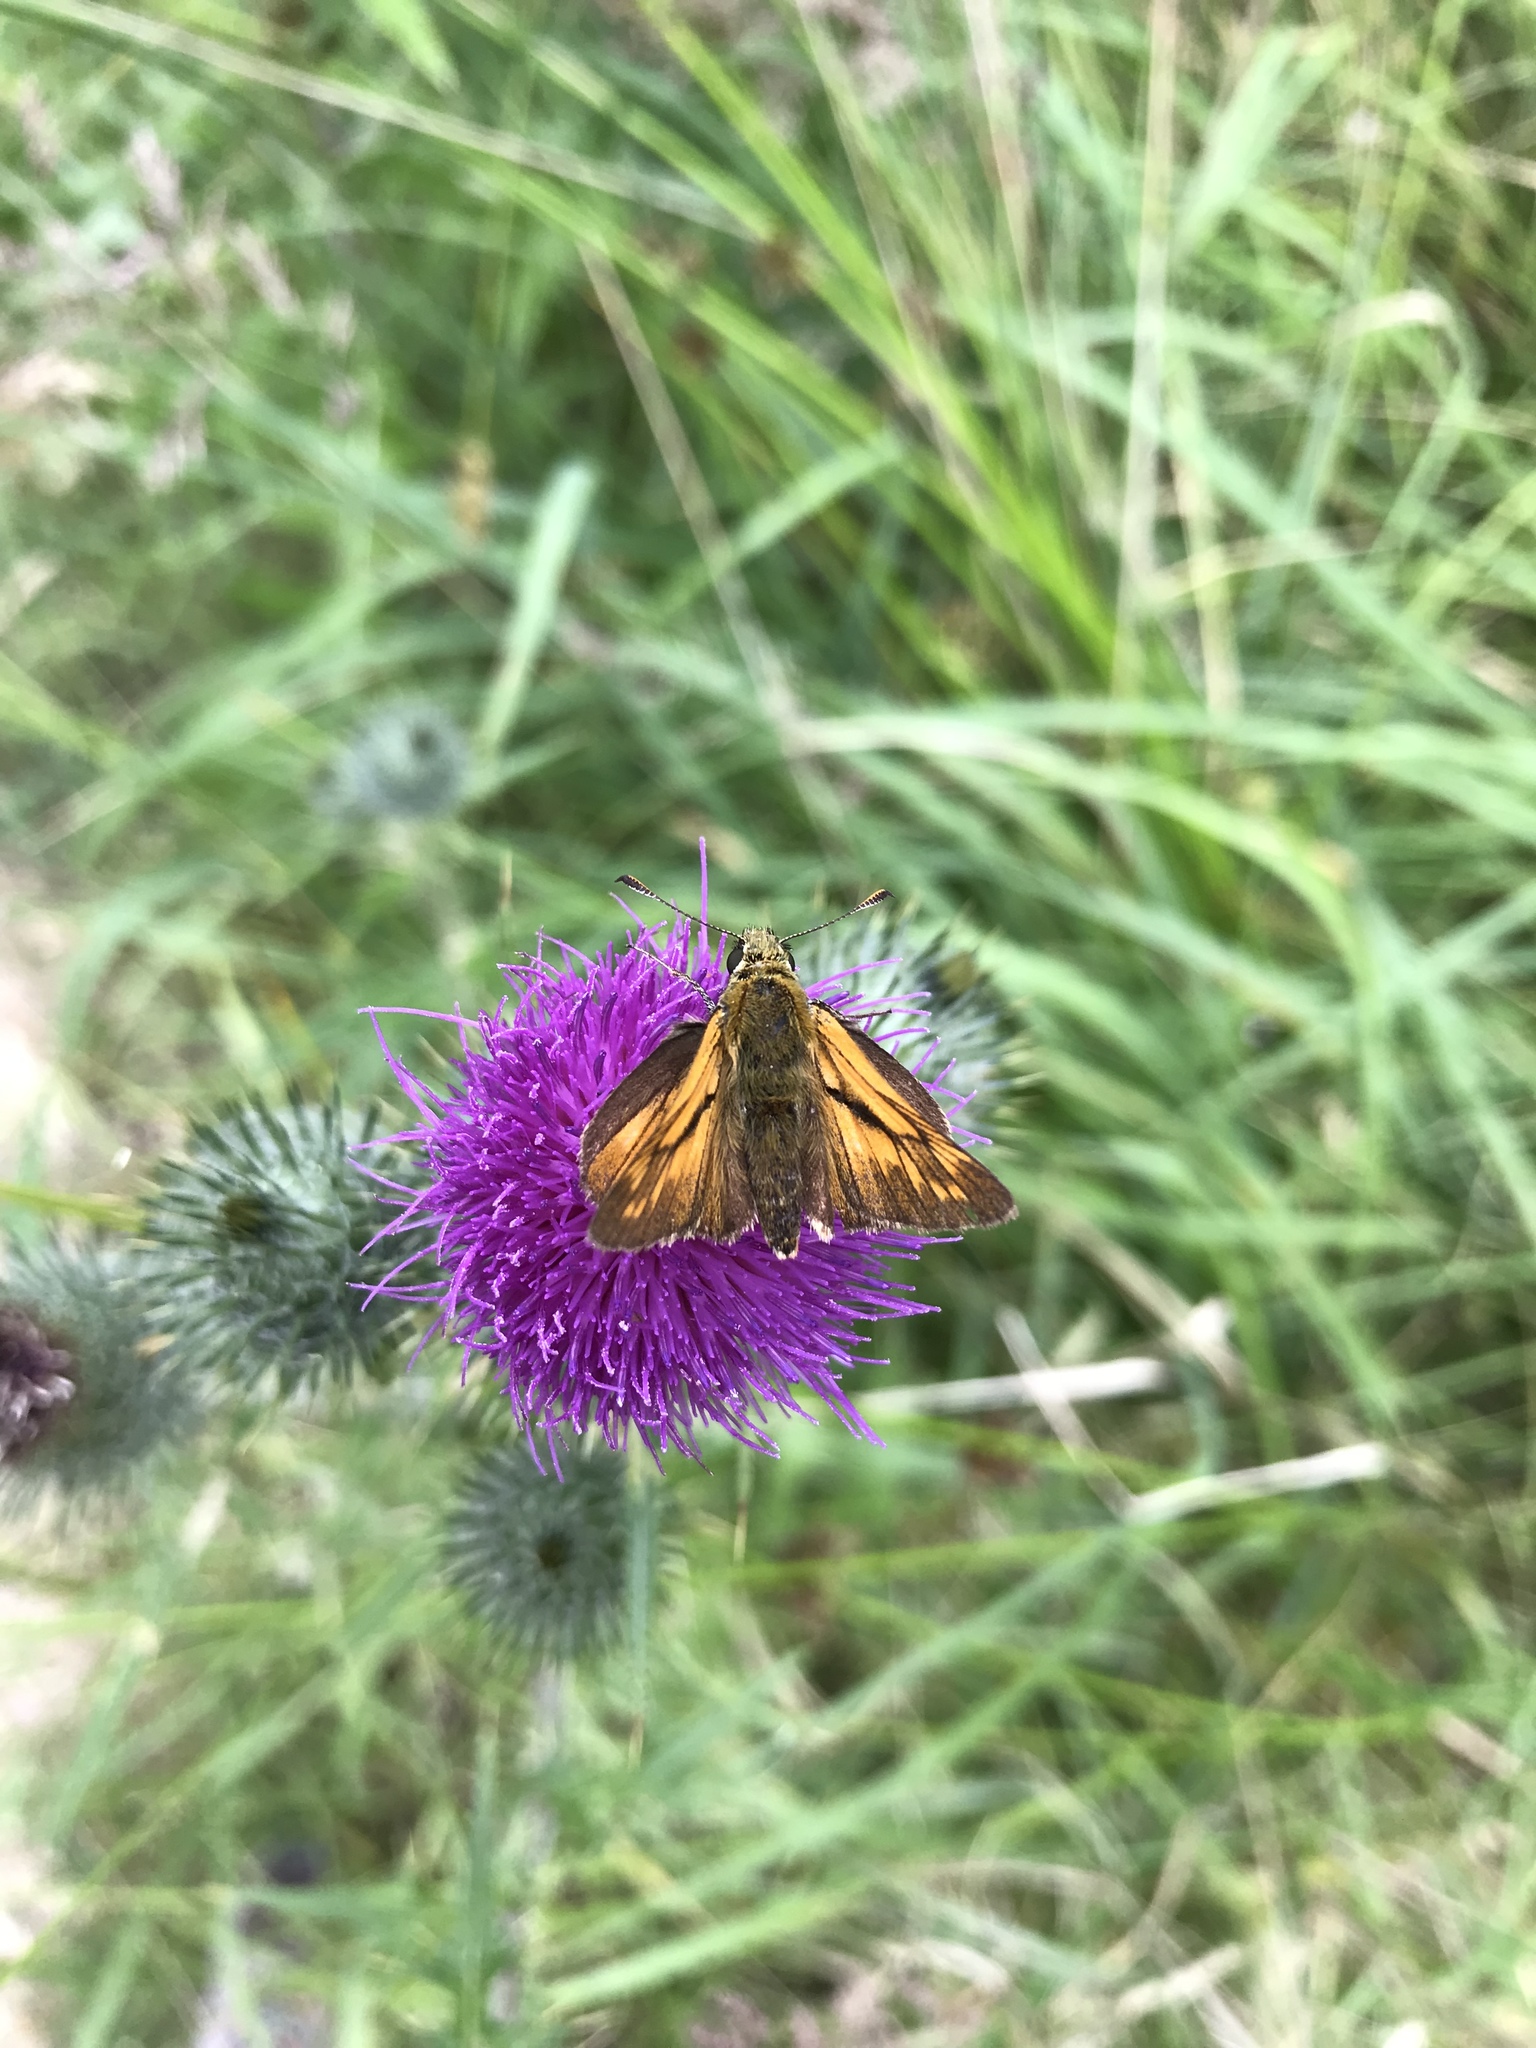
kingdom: Animalia
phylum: Arthropoda
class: Insecta
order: Lepidoptera
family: Hesperiidae
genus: Ochlodes
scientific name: Ochlodes venata
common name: Large skipper
